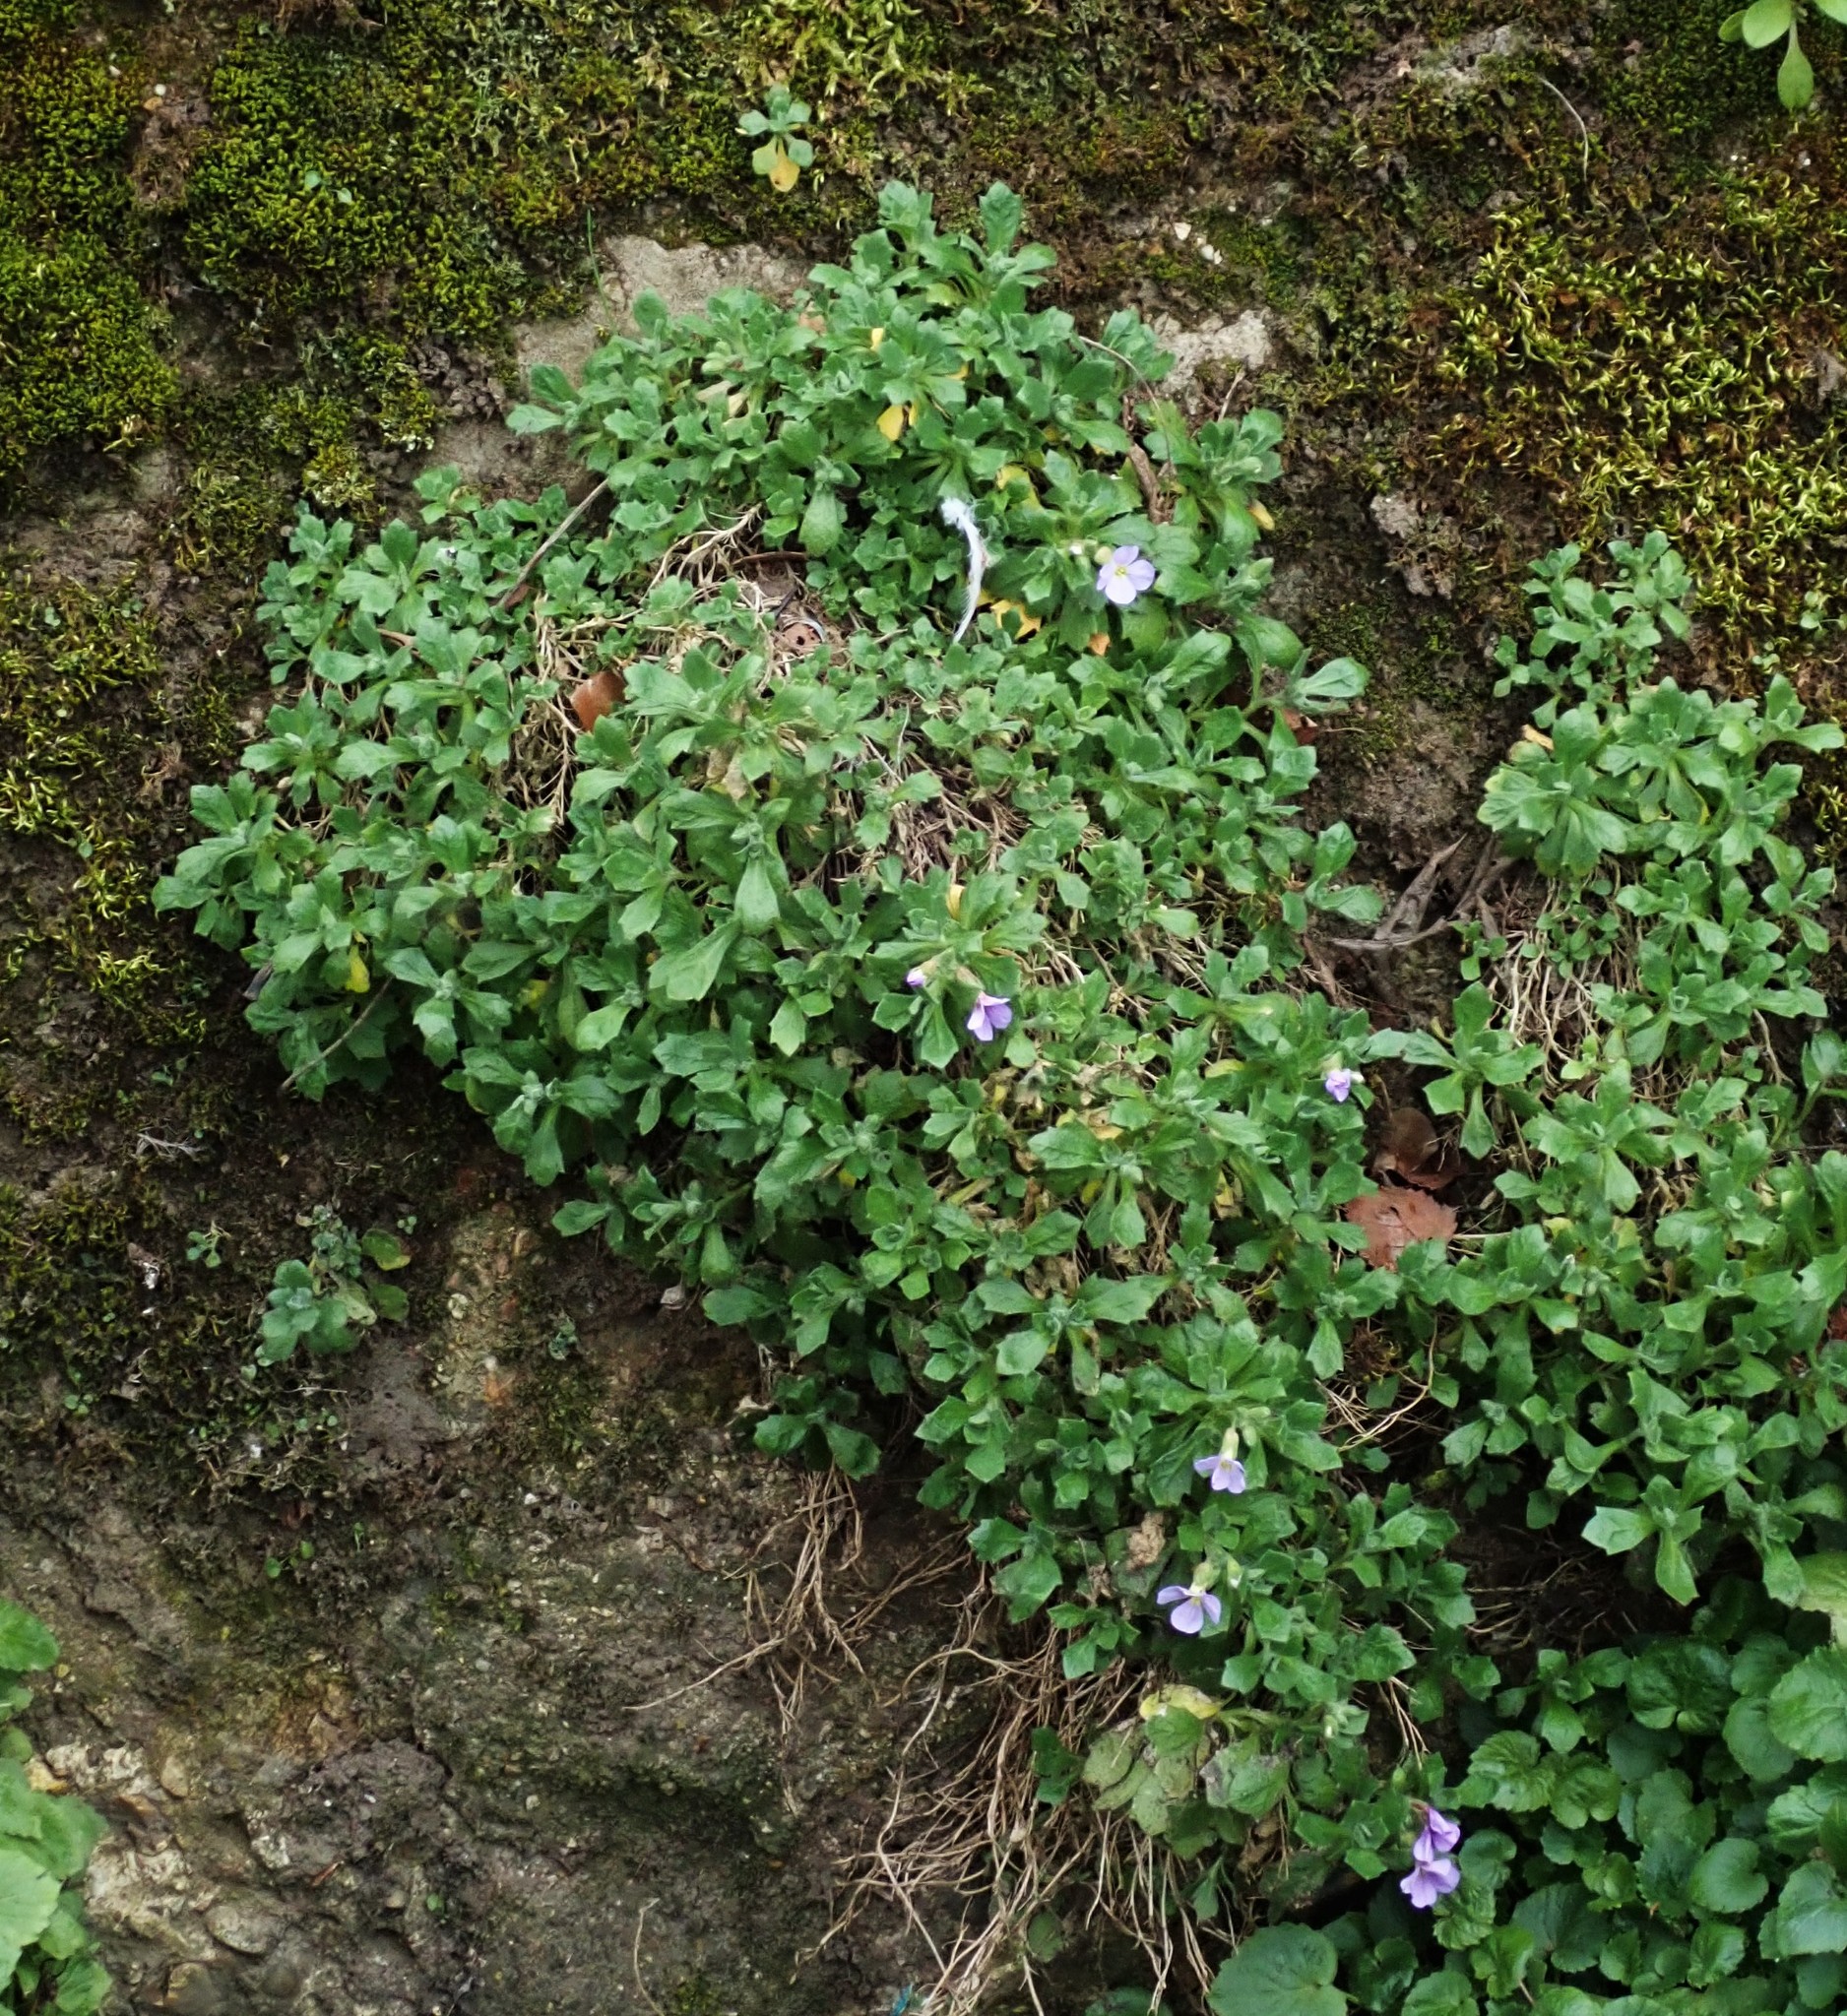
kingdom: Plantae
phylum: Tracheophyta
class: Magnoliopsida
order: Brassicales
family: Brassicaceae
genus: Aubrieta
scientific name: Aubrieta deltoidea
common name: Aubretia
